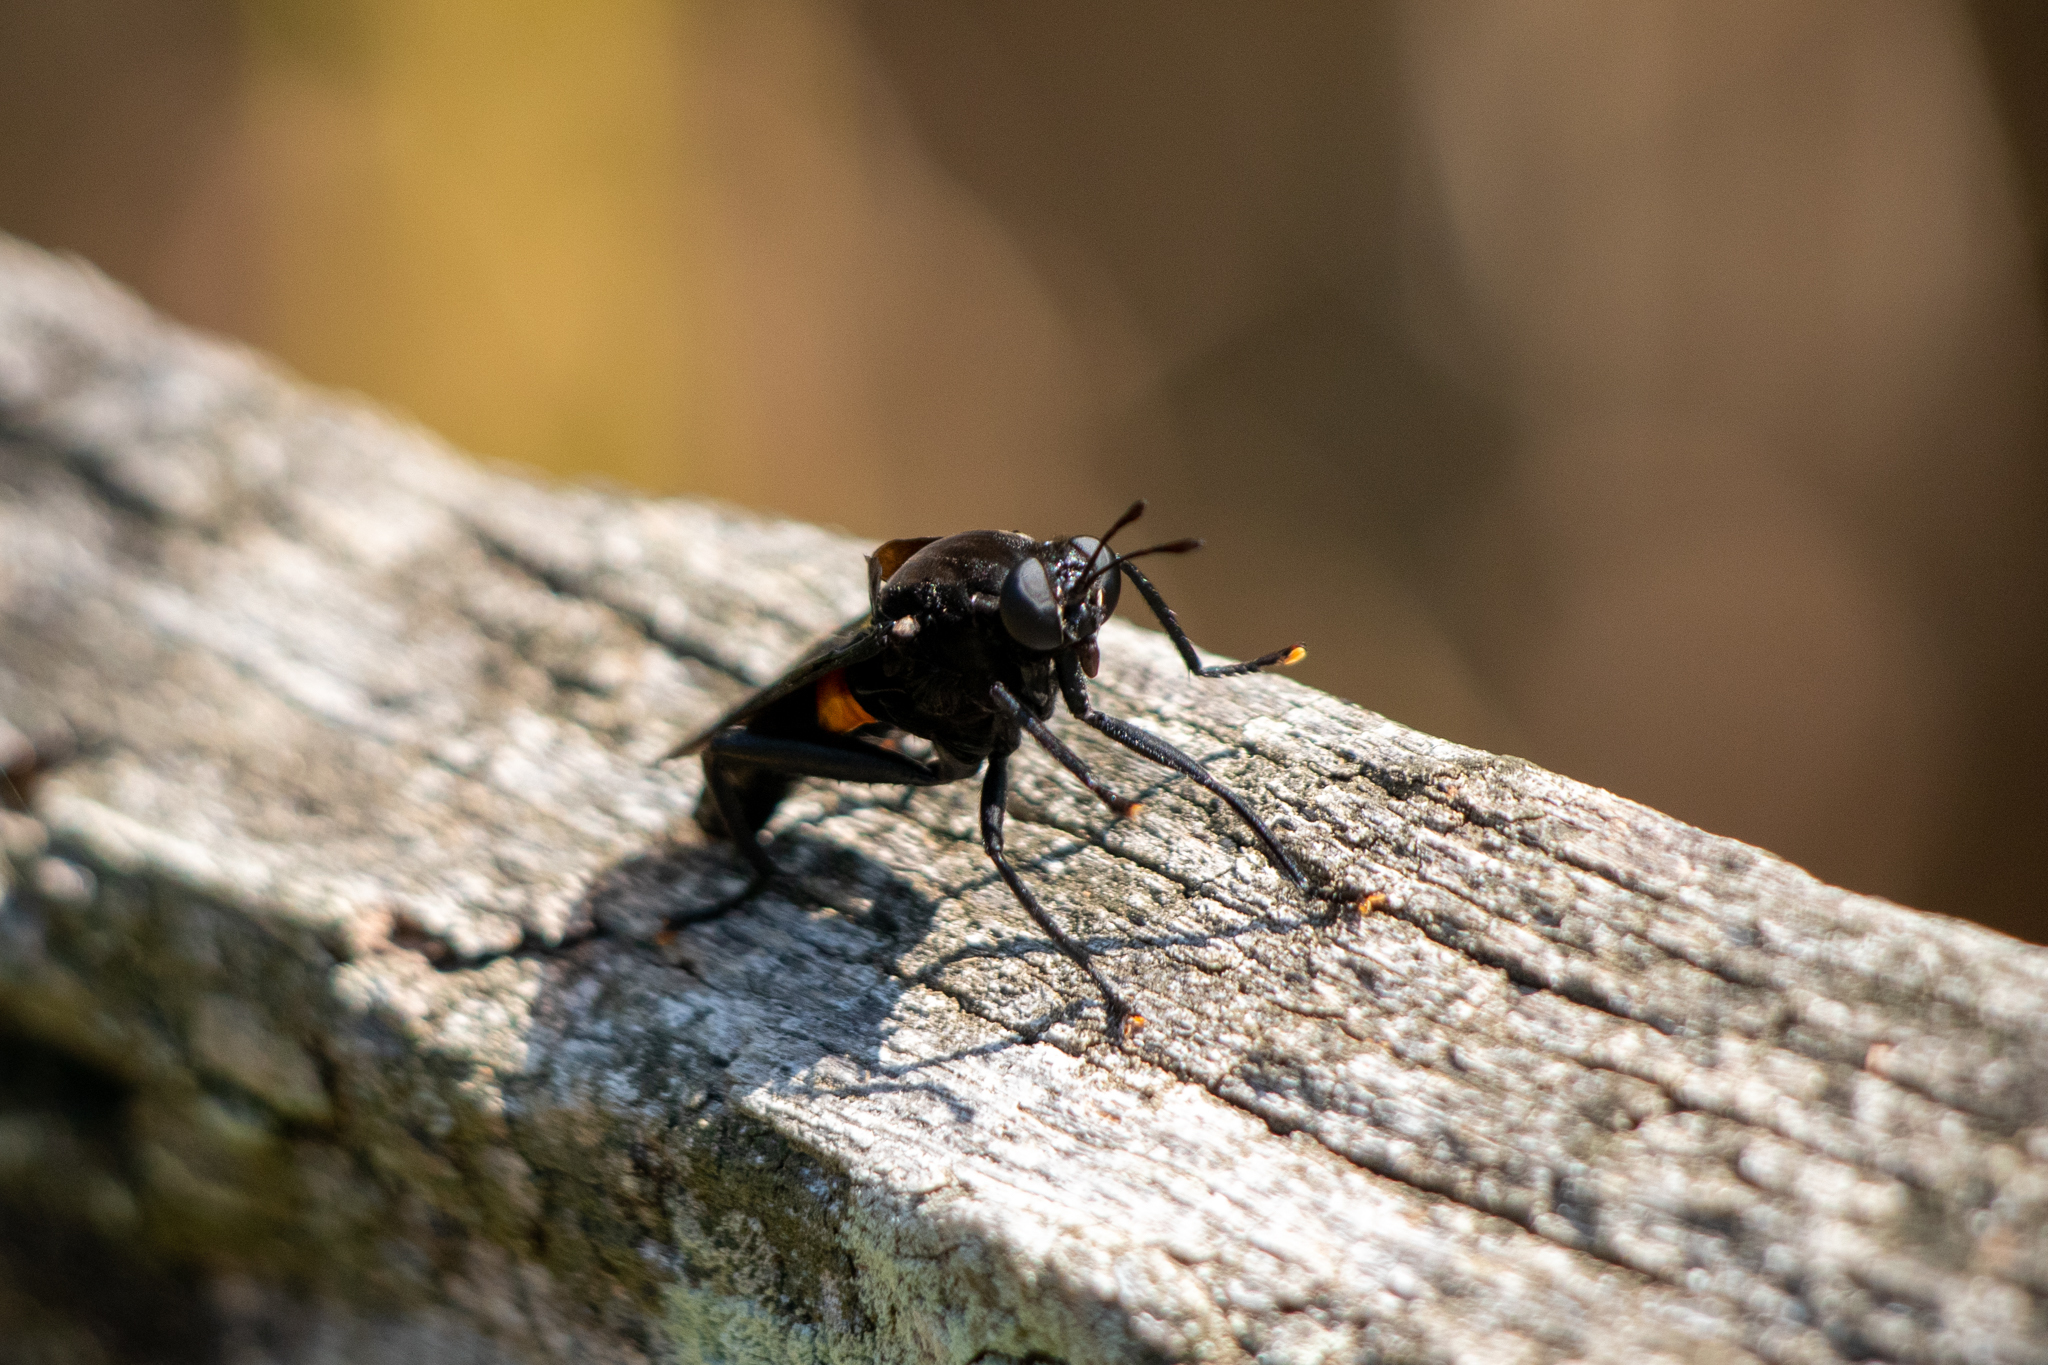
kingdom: Animalia
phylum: Arthropoda
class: Insecta
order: Diptera
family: Mydidae
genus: Mydas
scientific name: Mydas clavatus
